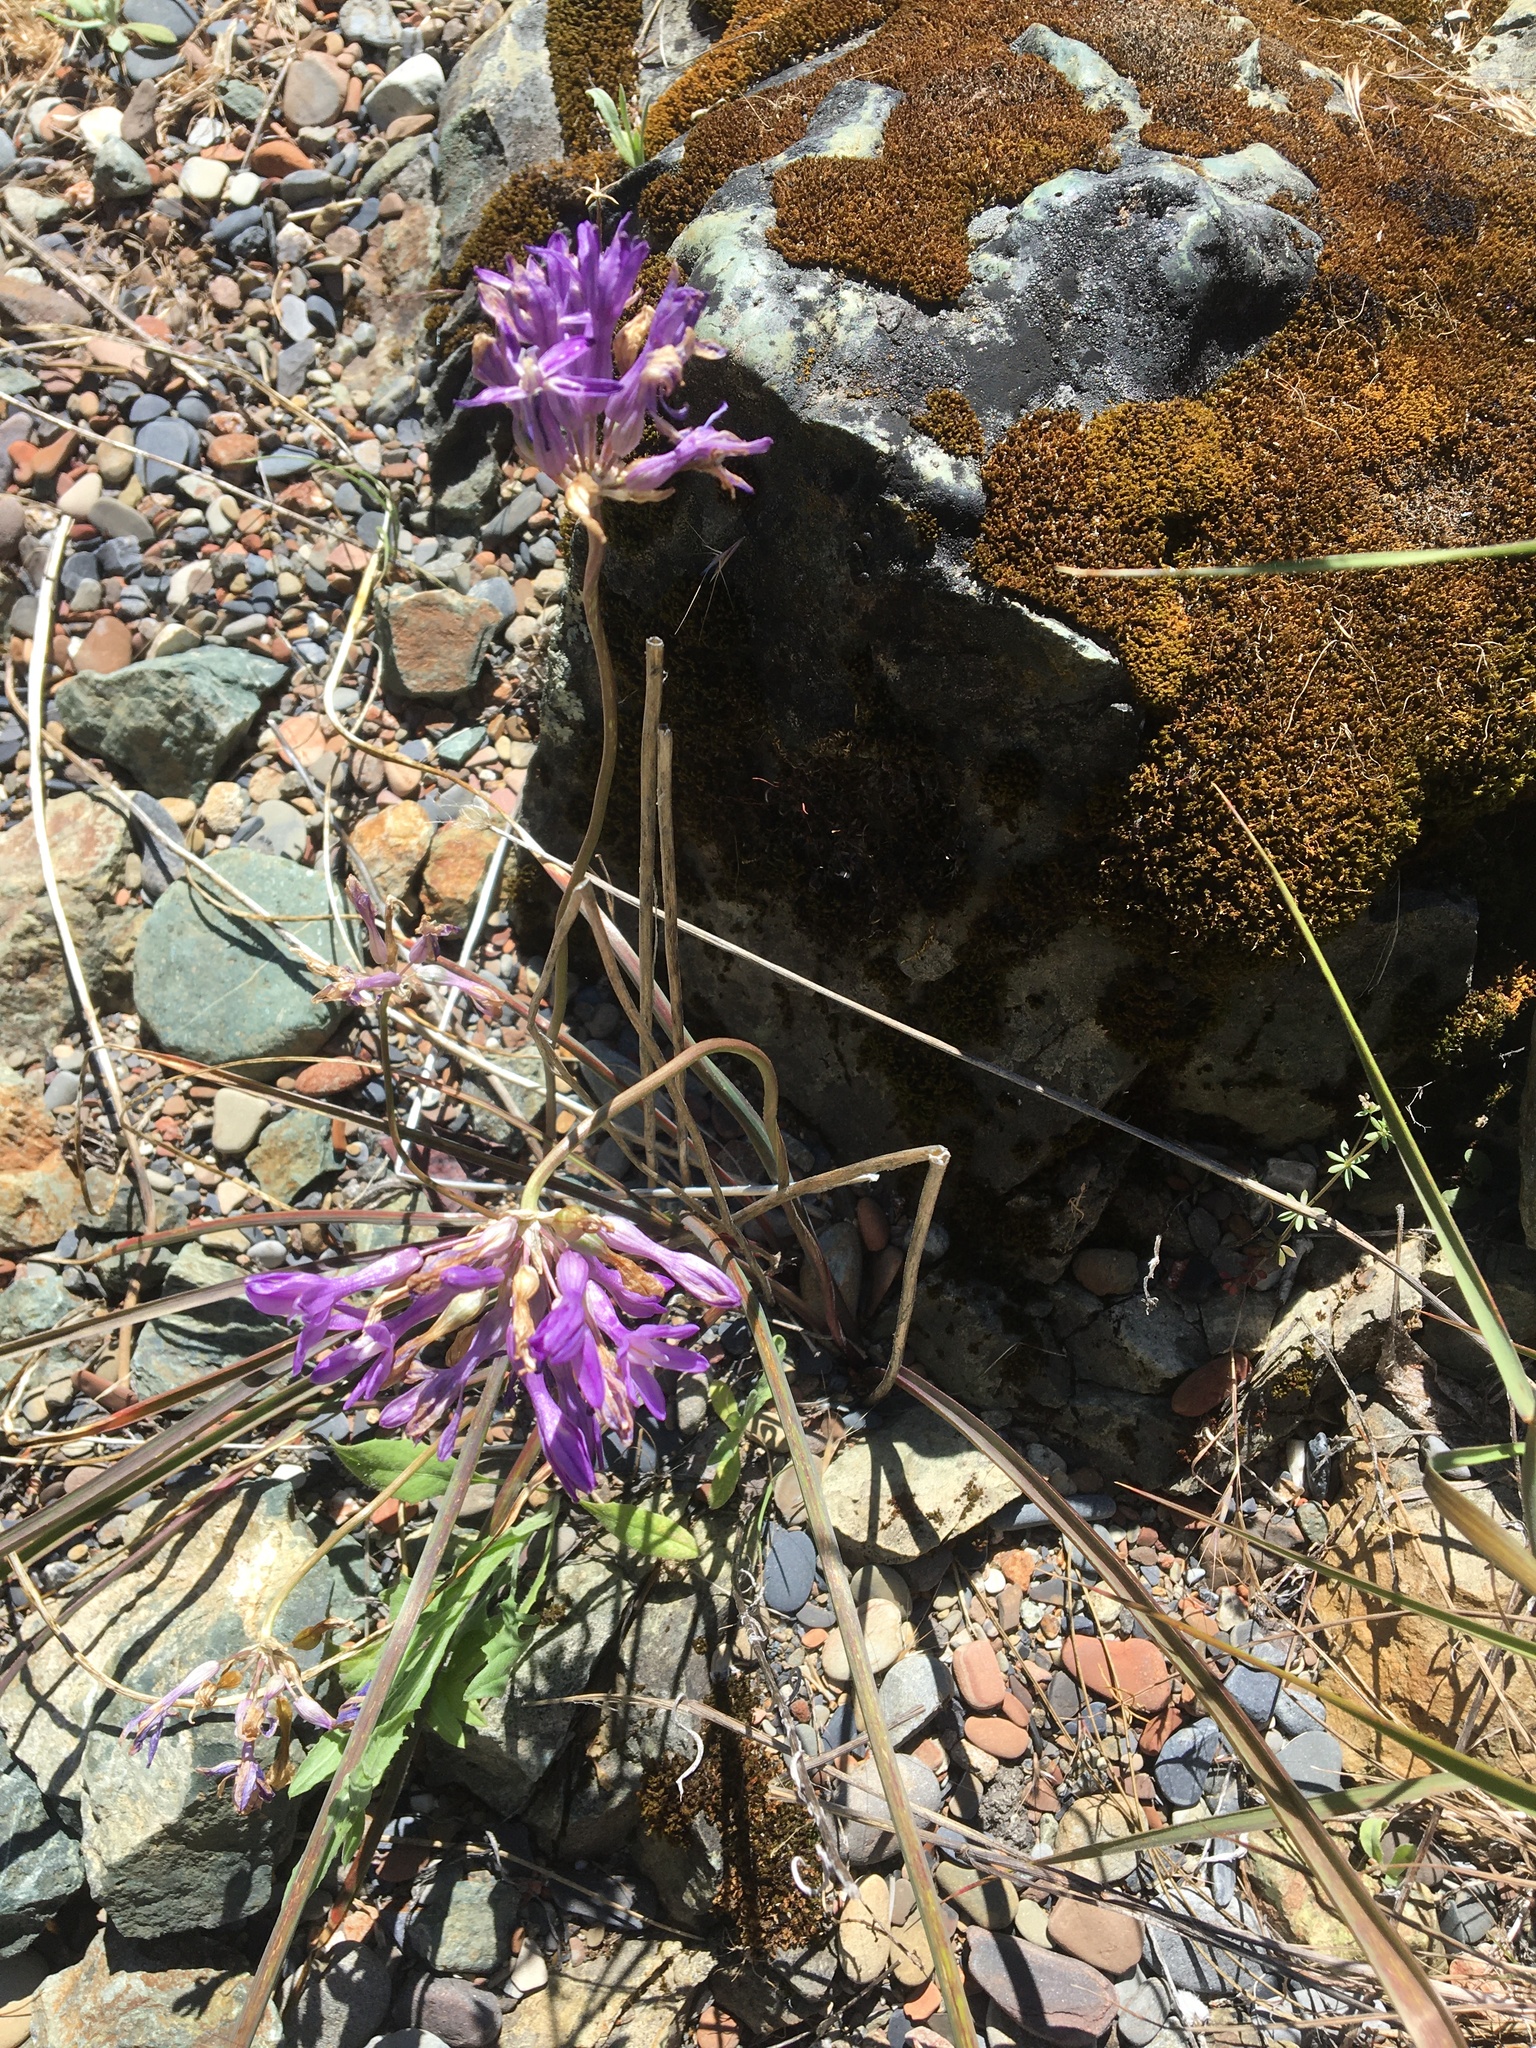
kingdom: Plantae
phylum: Tracheophyta
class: Liliopsida
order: Asparagales
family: Asparagaceae
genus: Dichelostemma
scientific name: Dichelostemma multiflorum
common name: Round-tooth ookow
